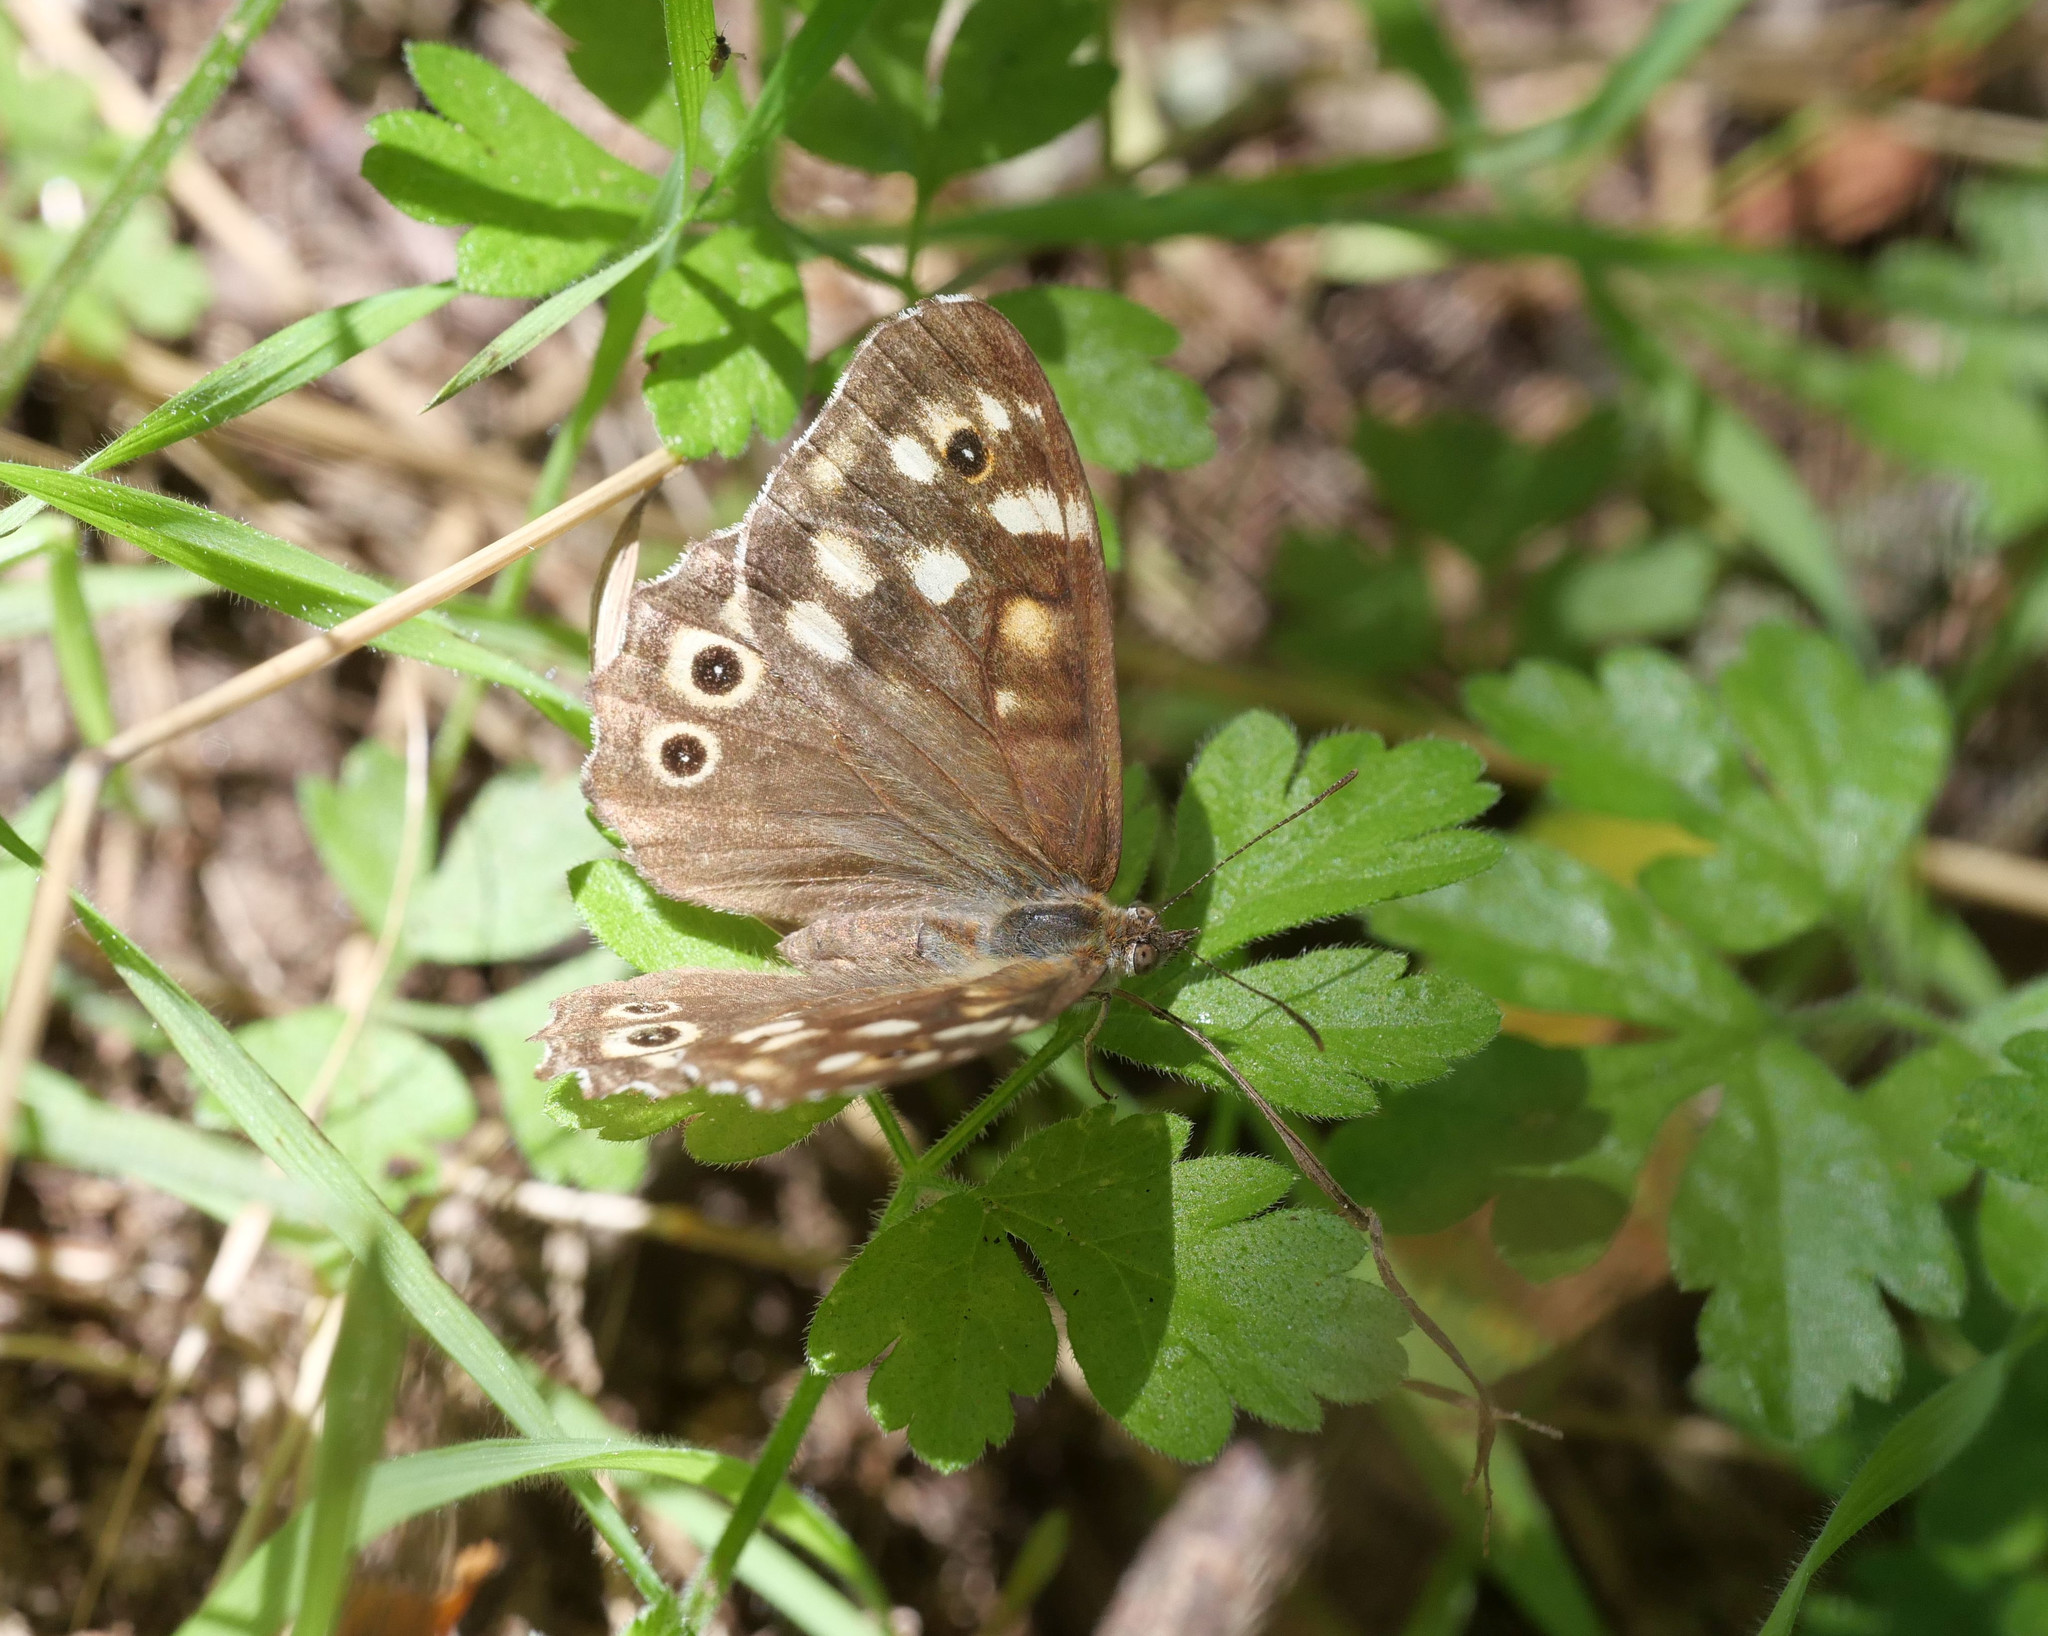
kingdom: Animalia
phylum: Arthropoda
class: Insecta
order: Lepidoptera
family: Nymphalidae
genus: Pararge
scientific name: Pararge aegeria
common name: Speckled wood
